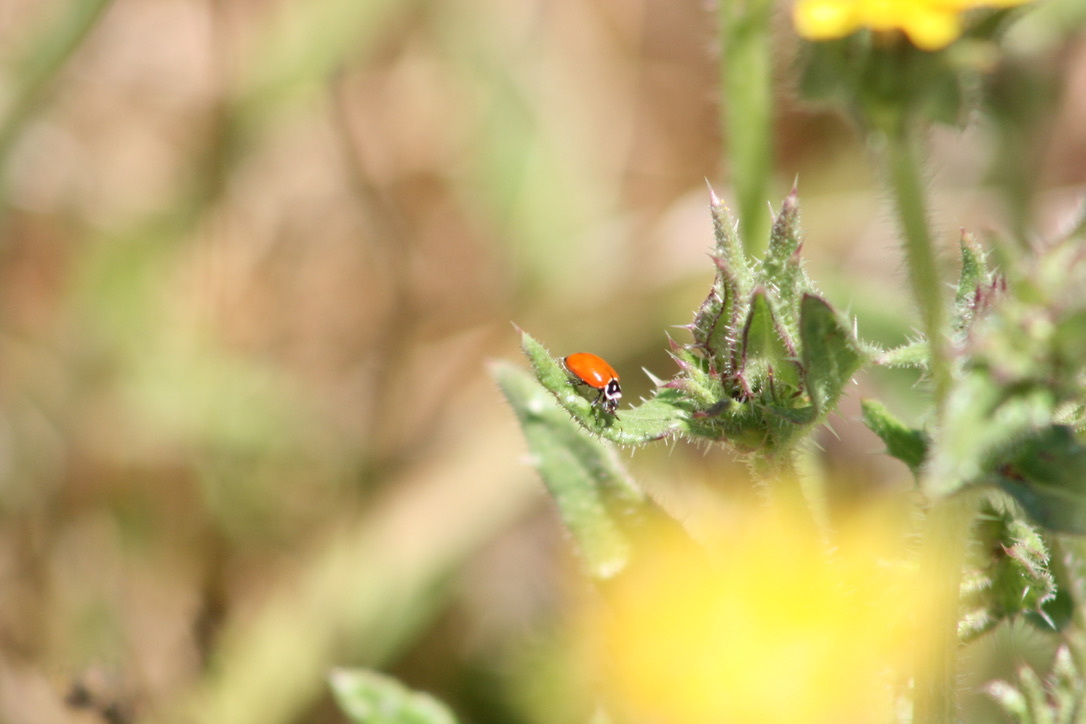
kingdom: Animalia
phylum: Arthropoda
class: Insecta
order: Coleoptera
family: Coccinellidae
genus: Hippodamia
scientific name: Hippodamia convergens
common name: Convergent lady beetle
